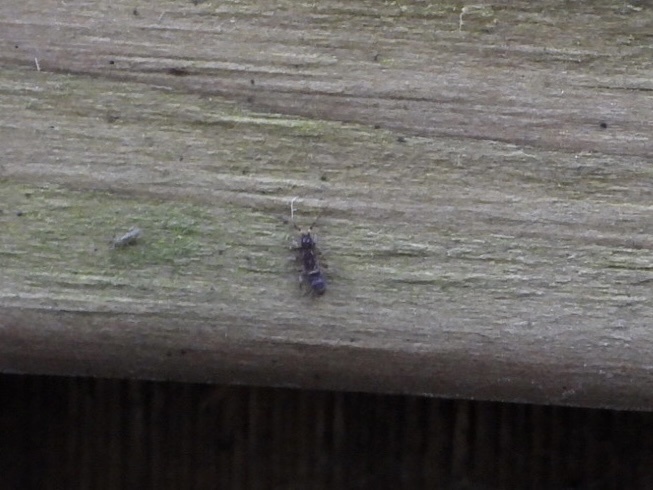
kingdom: Animalia
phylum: Arthropoda
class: Collembola
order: Entomobryomorpha
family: Orchesellidae
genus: Orchesella
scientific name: Orchesella cincta
